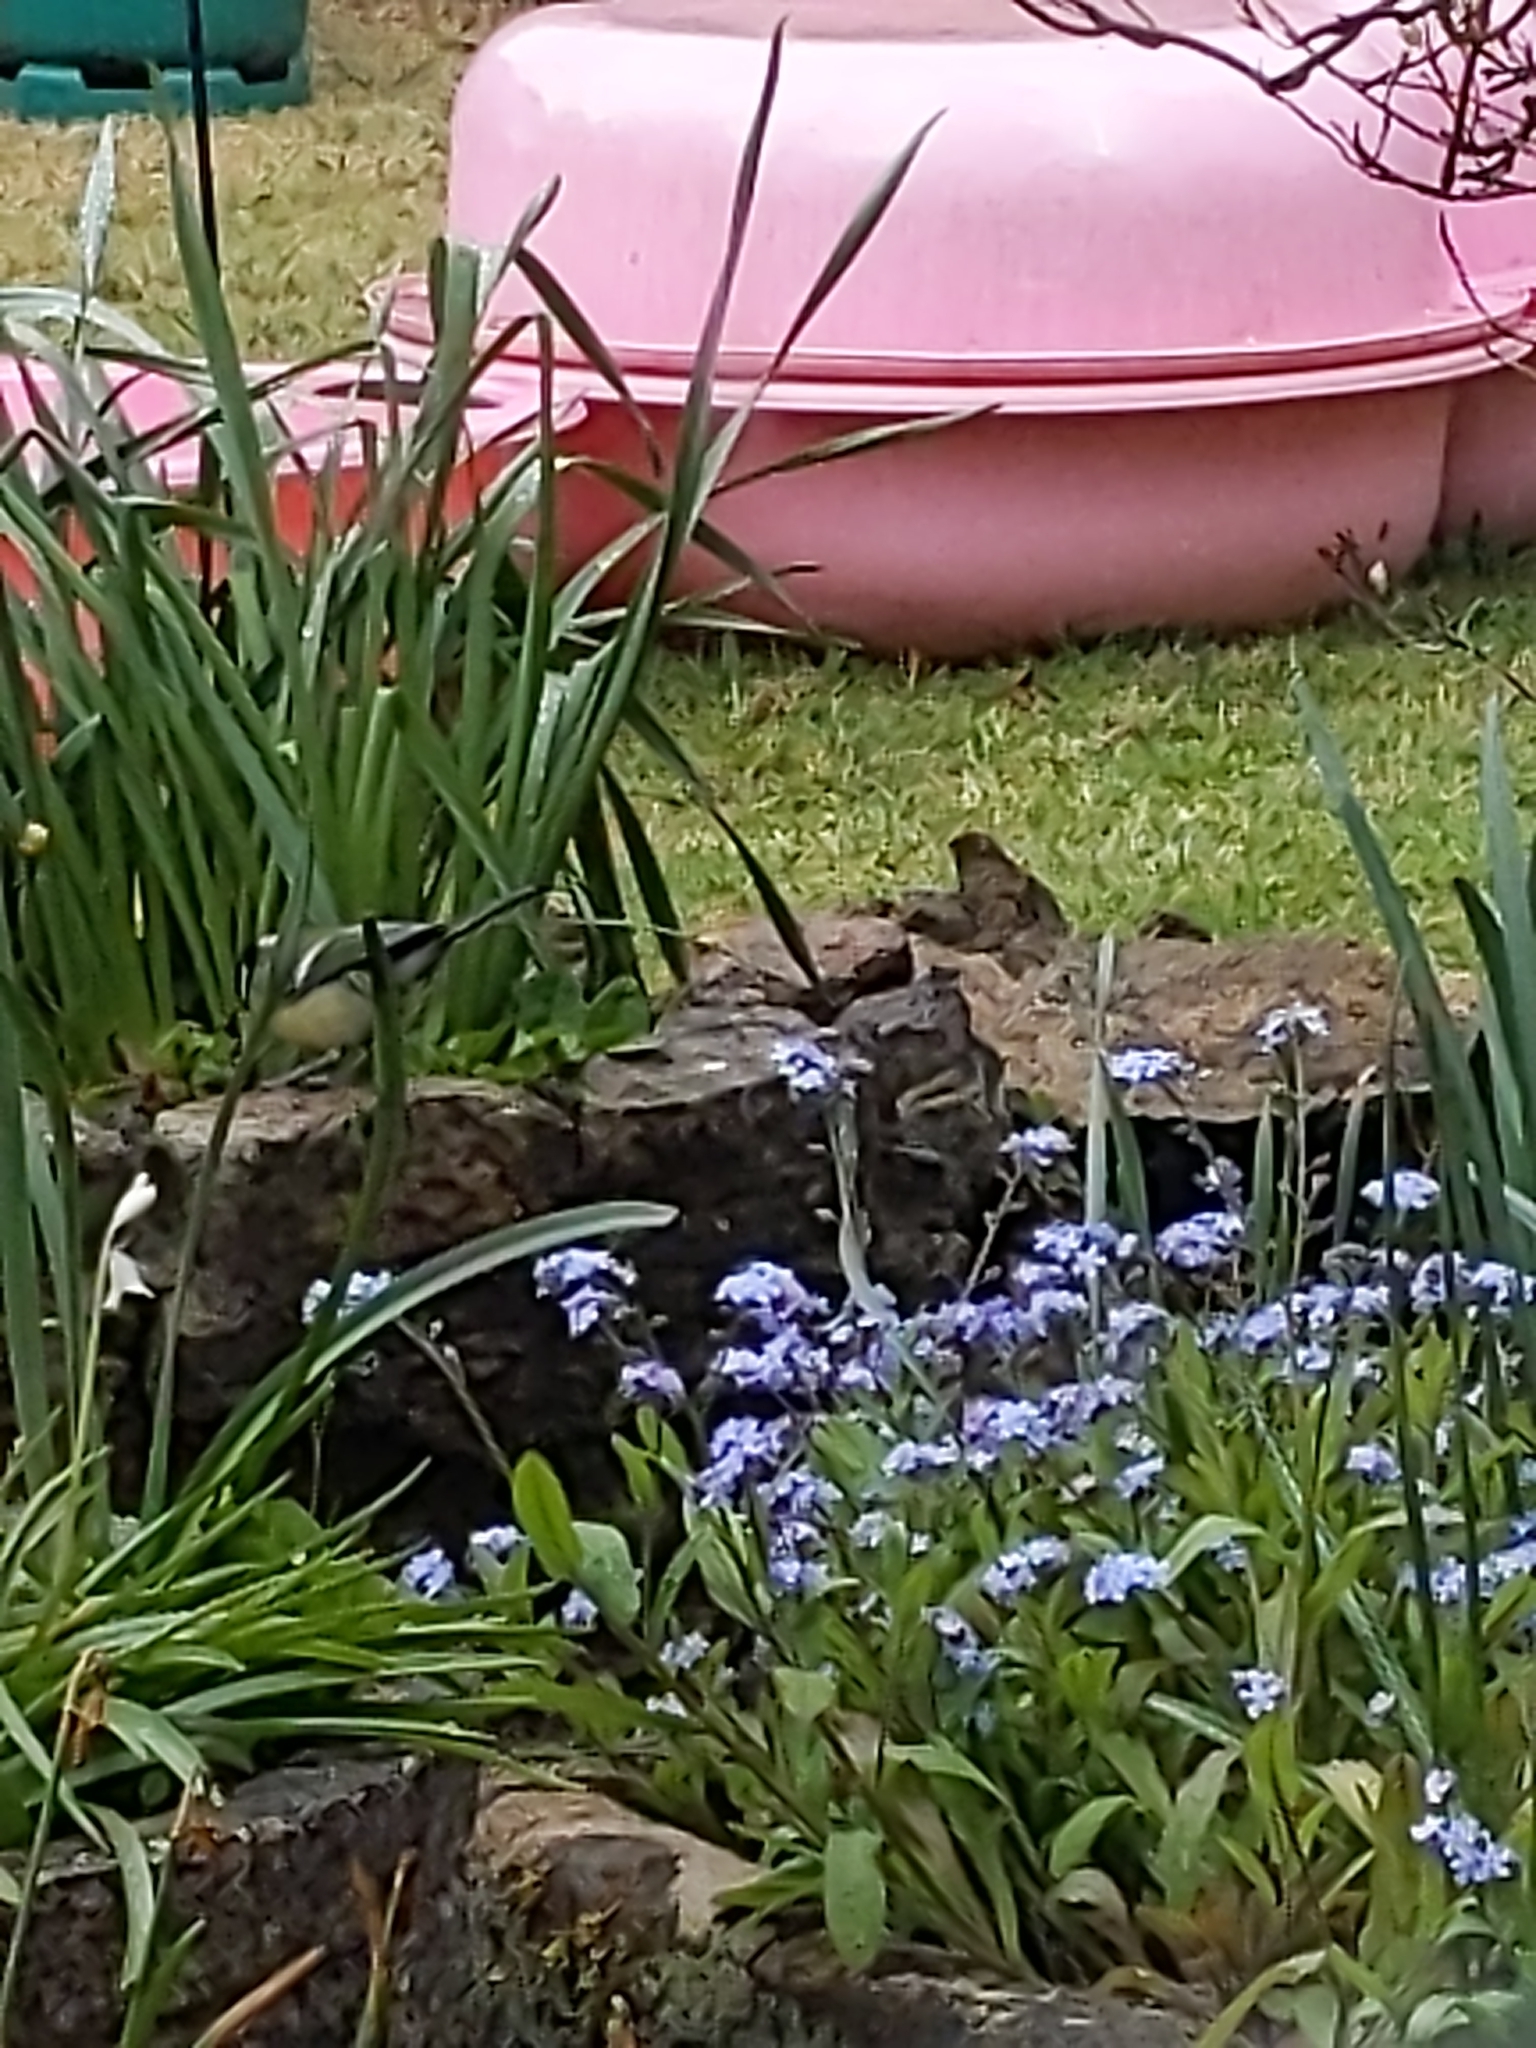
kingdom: Animalia
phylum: Chordata
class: Aves
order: Passeriformes
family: Paridae
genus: Parus
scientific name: Parus major
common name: Great tit
